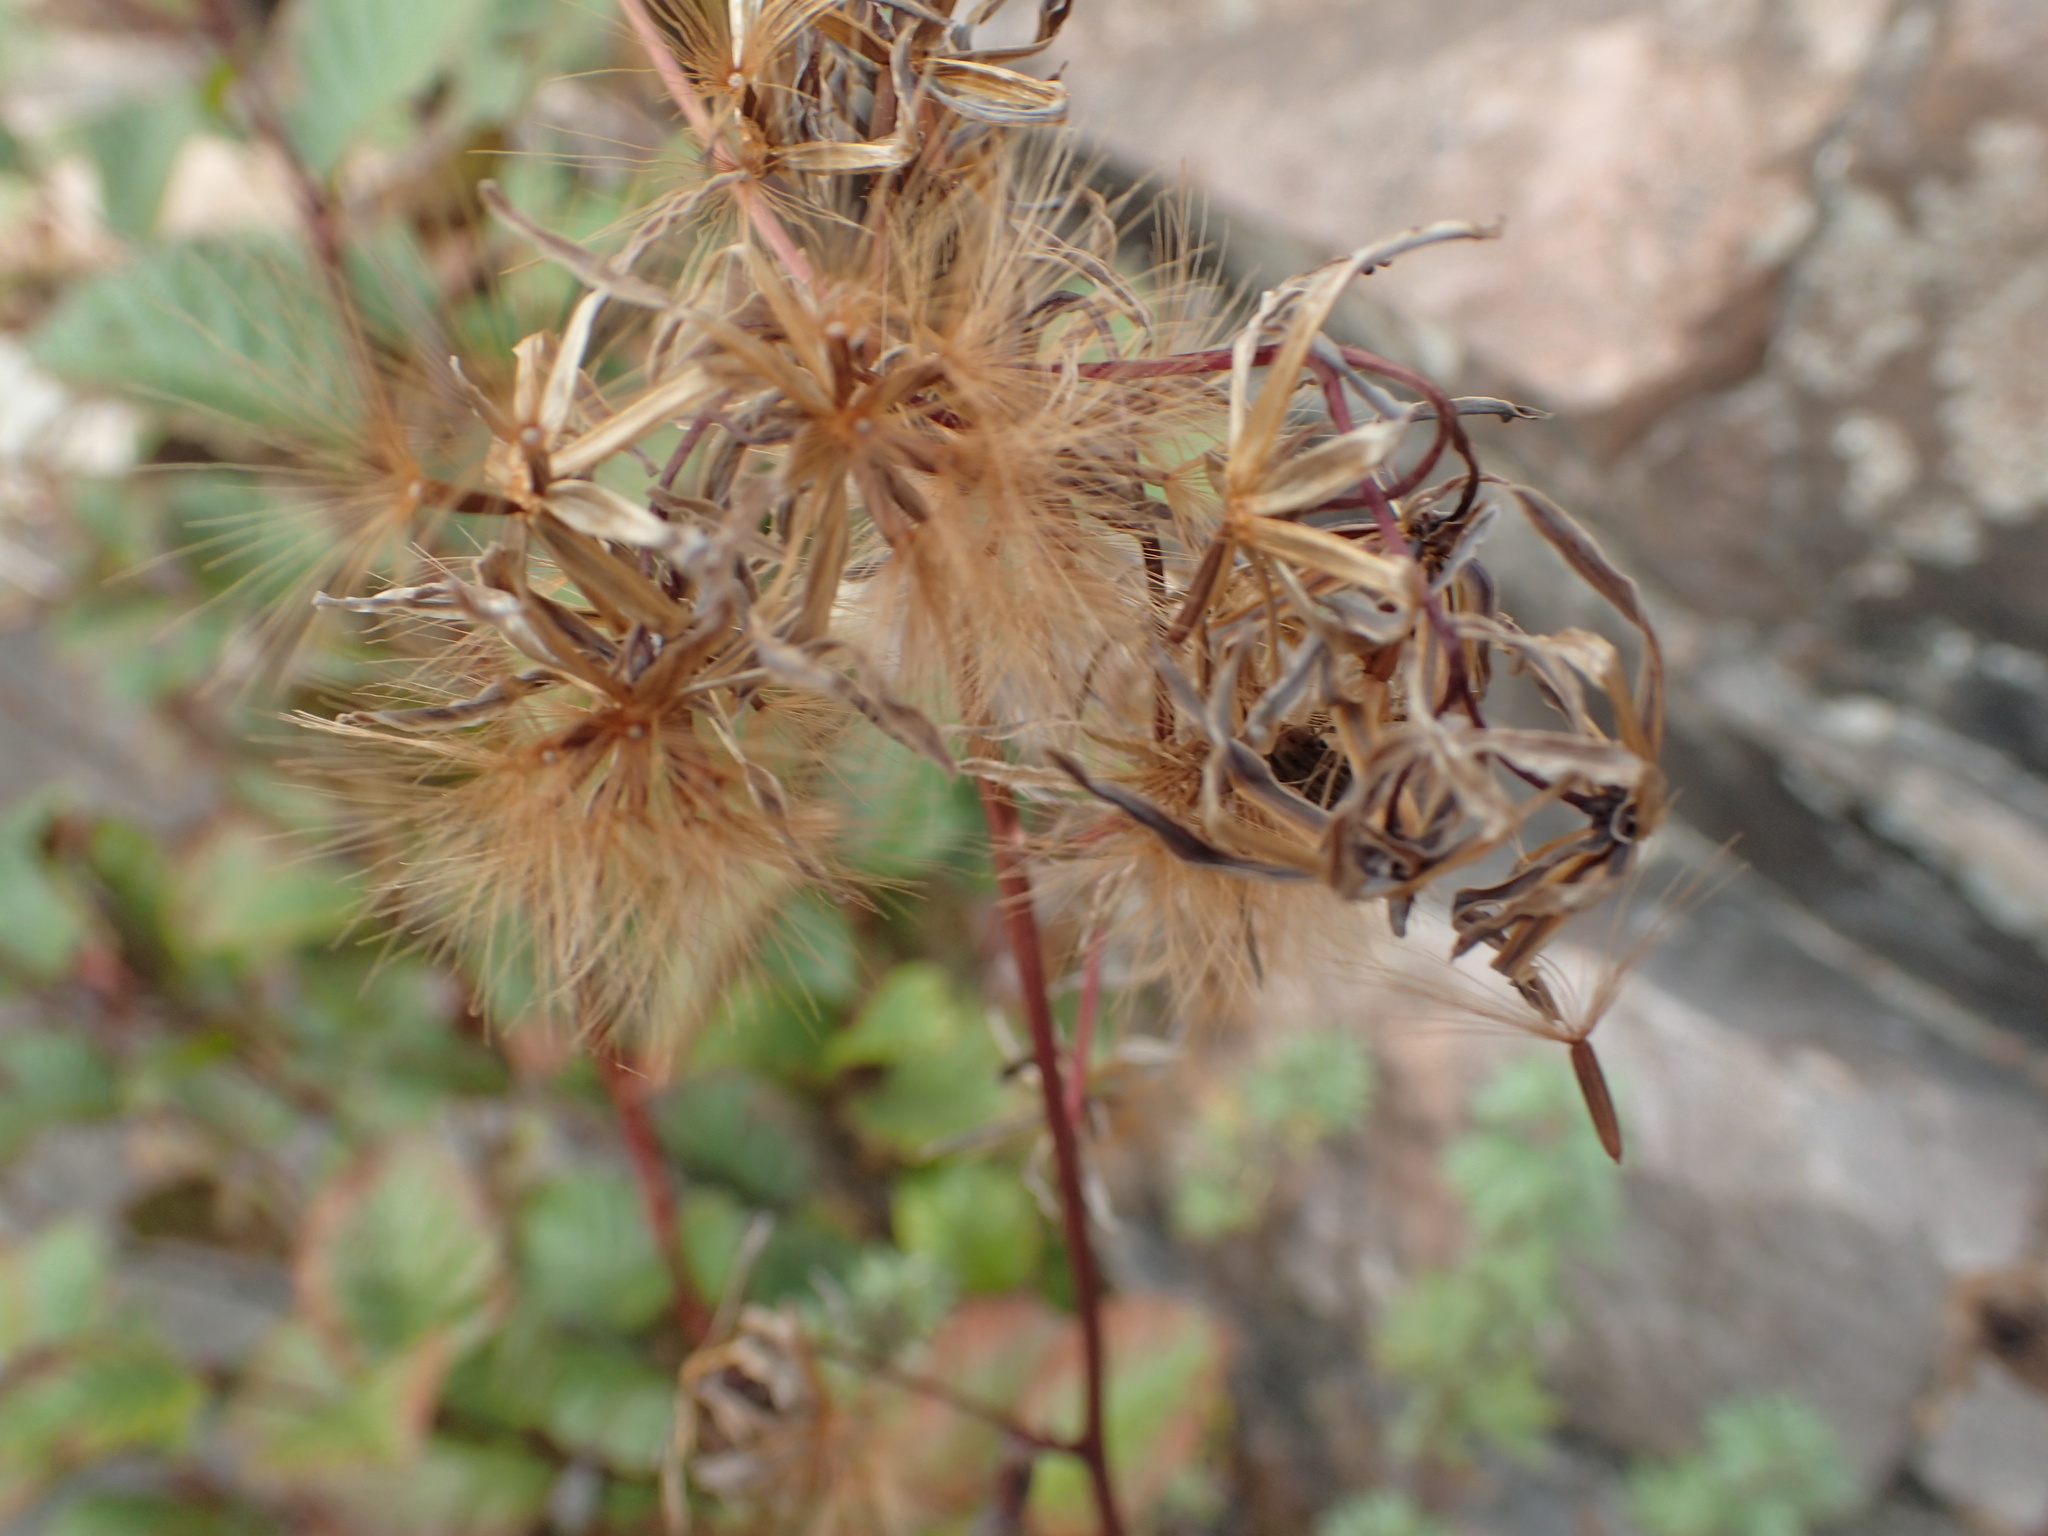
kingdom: Plantae
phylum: Tracheophyta
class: Magnoliopsida
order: Asterales
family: Asteraceae
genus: Nabalus
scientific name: Nabalus racemosus
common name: Glaucous white lettuce
